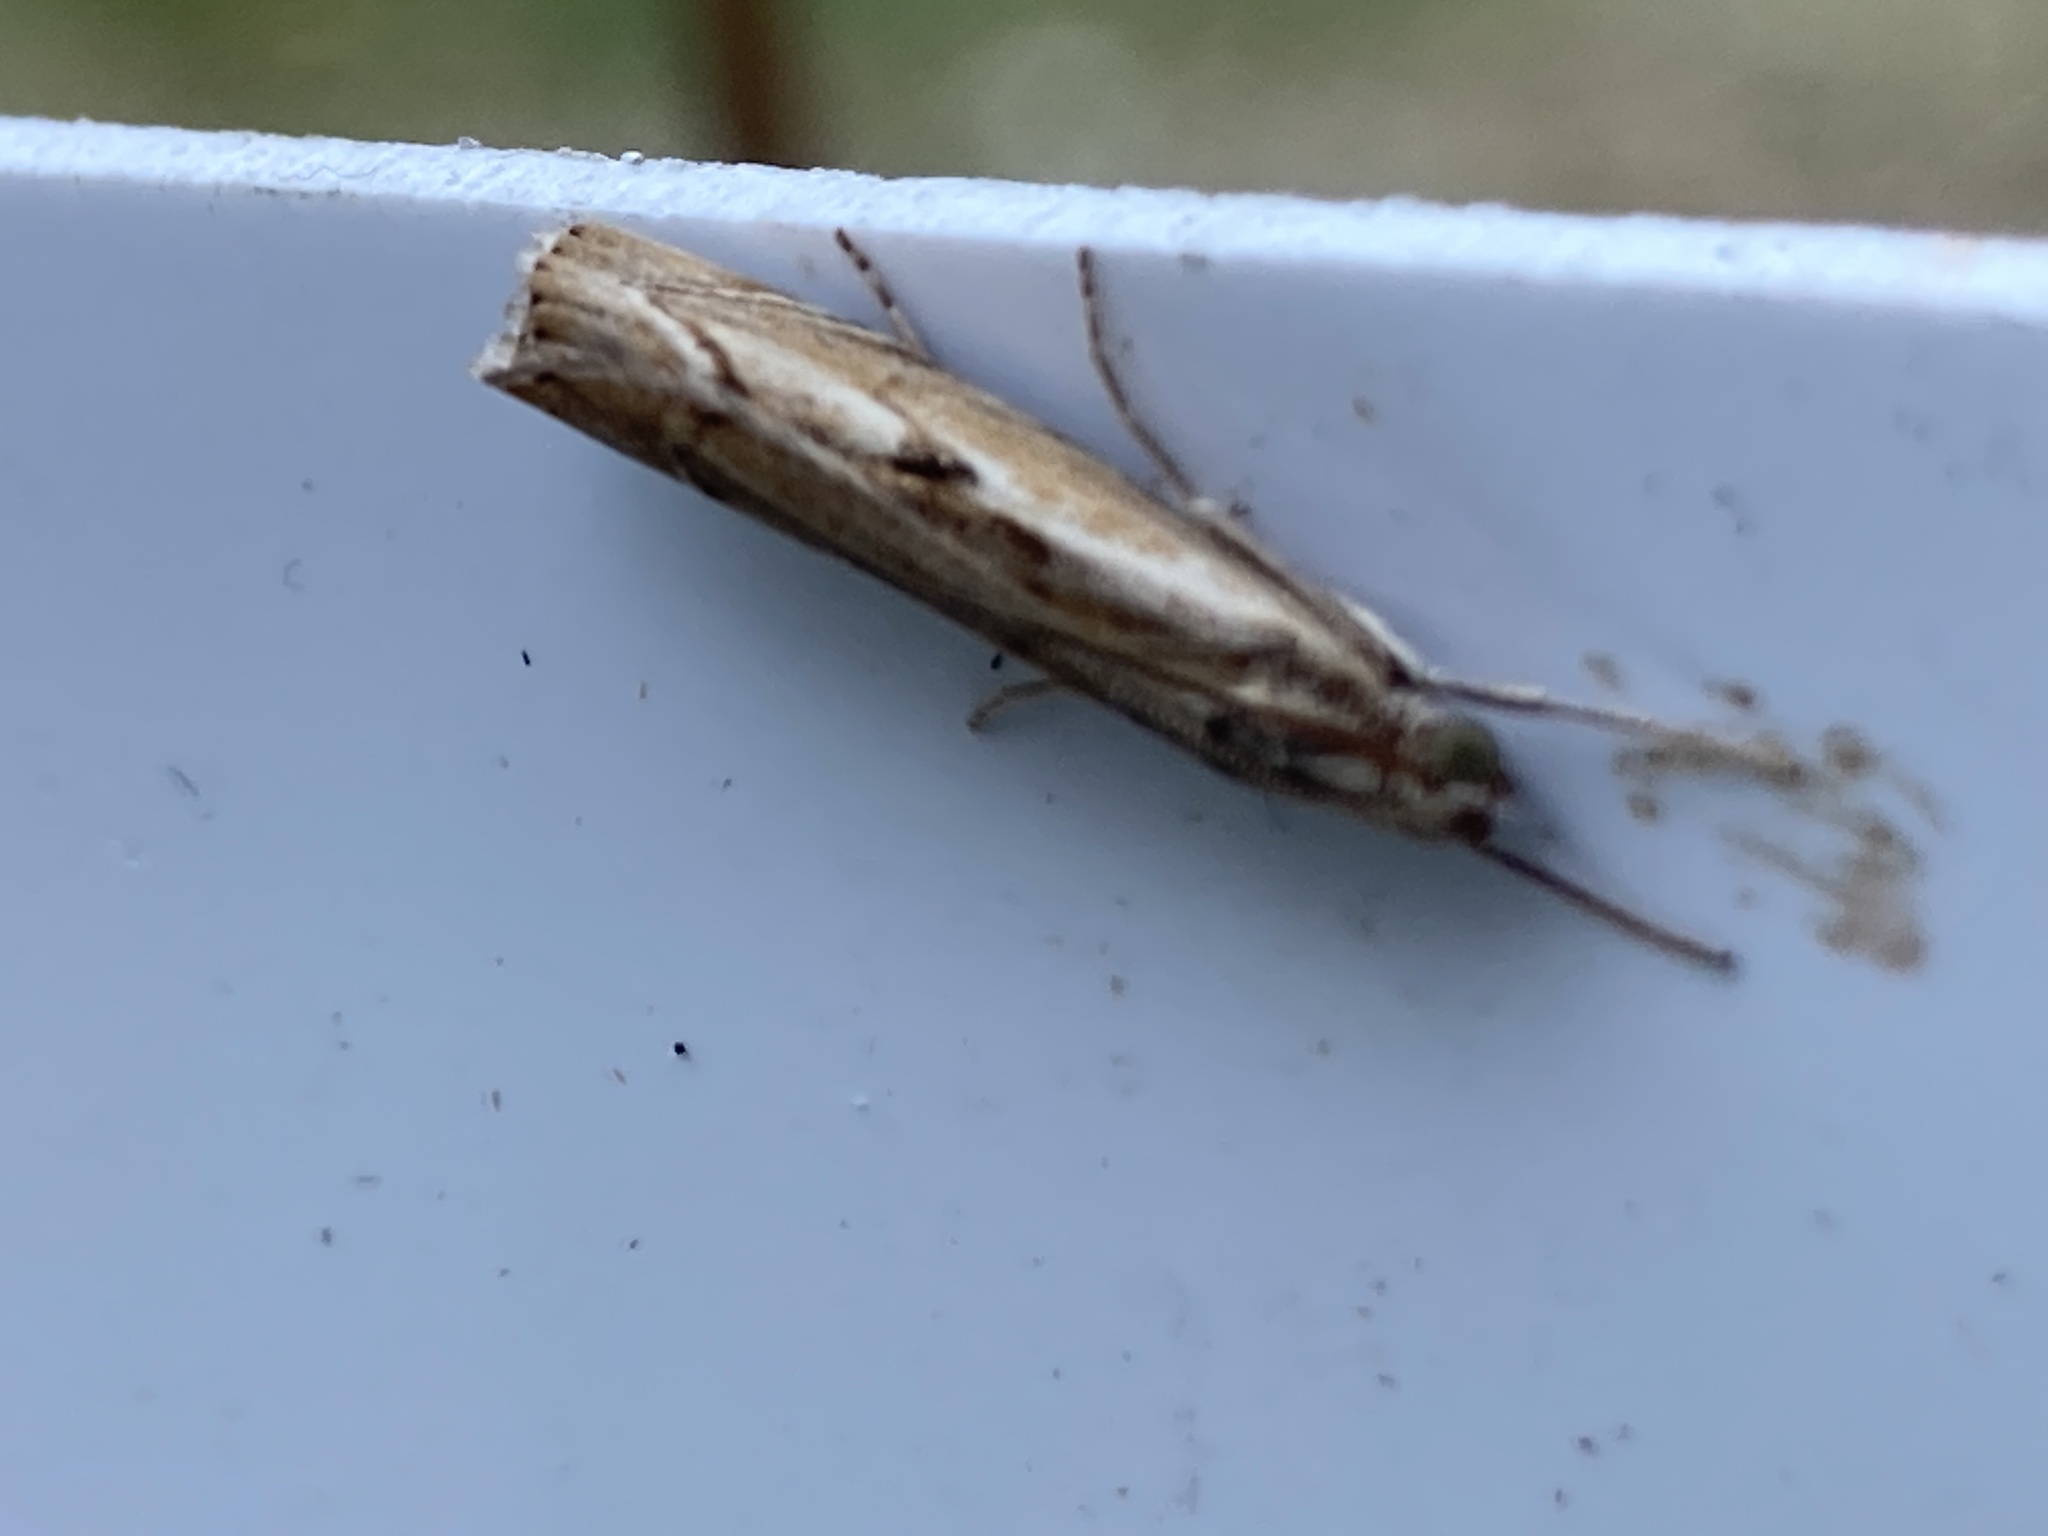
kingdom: Animalia
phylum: Arthropoda
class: Insecta
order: Lepidoptera
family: Crambidae
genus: Agriphila
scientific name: Agriphila geniculea
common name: Elbow-stripe grass-veneer
